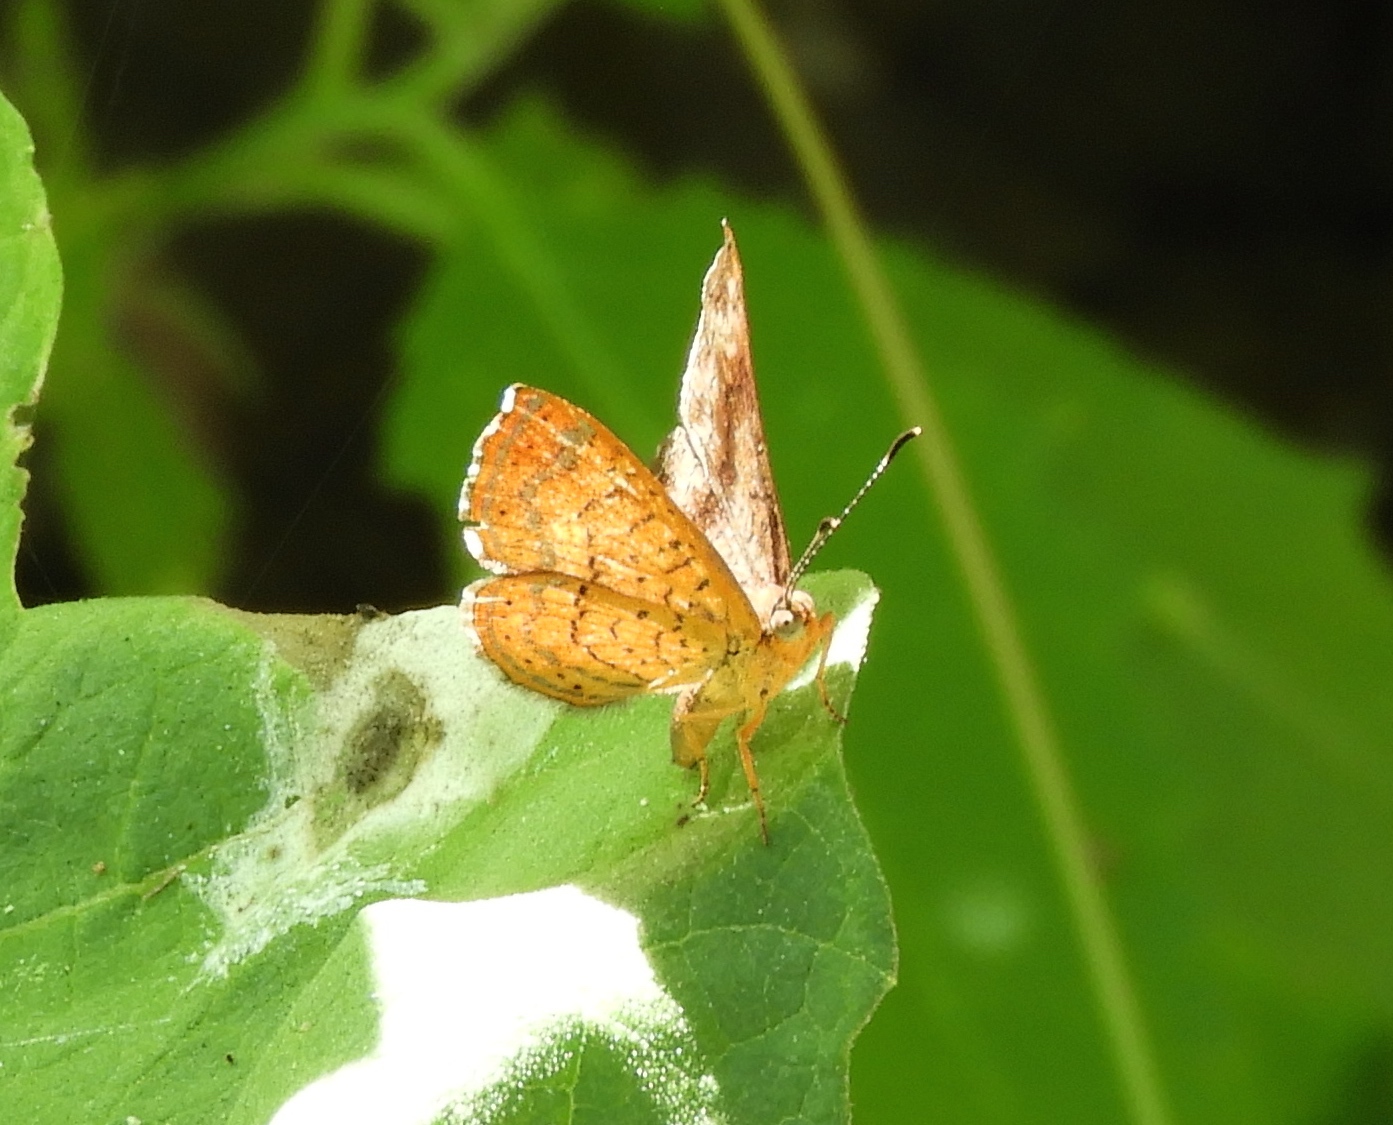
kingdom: Animalia
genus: Calephelis
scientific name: Calephelis
